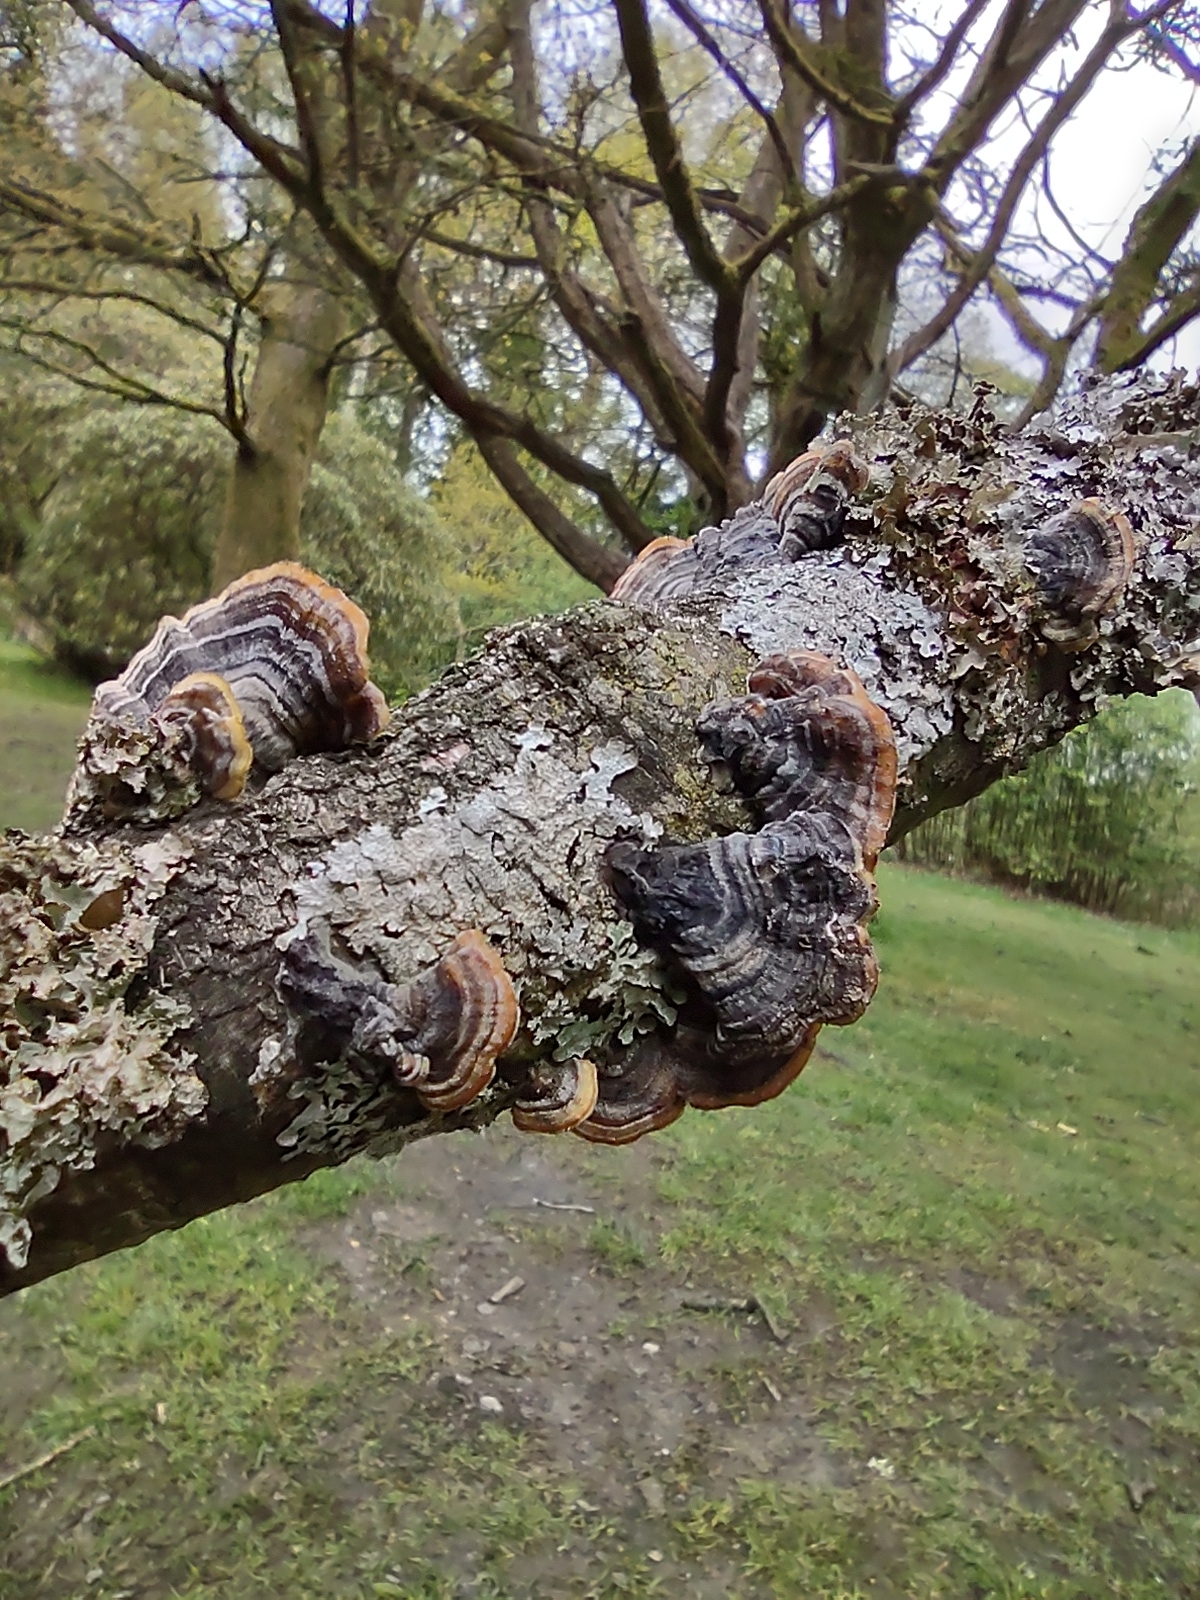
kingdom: Fungi
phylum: Basidiomycota
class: Agaricomycetes
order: Polyporales
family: Polyporaceae
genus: Trametes
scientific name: Trametes versicolor
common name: Turkeytail
